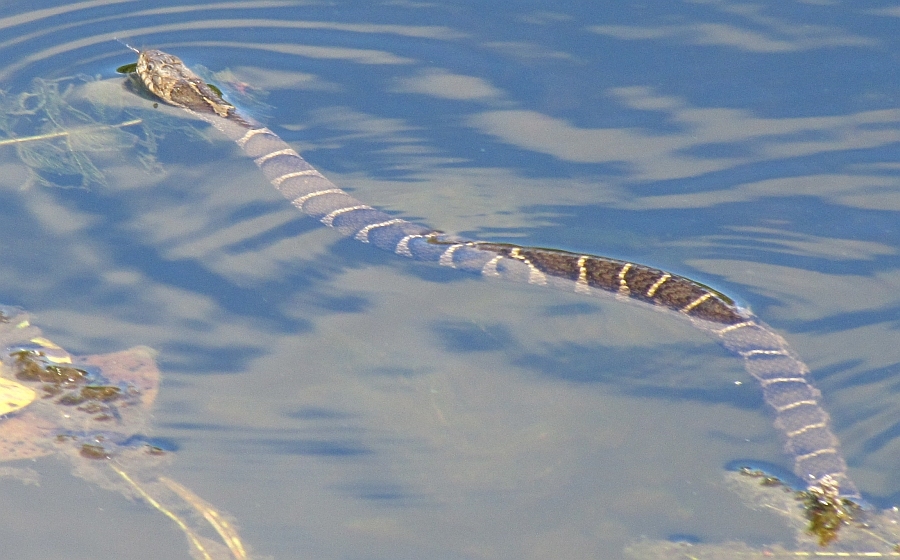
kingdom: Animalia
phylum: Chordata
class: Squamata
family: Colubridae
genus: Nerodia
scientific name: Nerodia sipedon
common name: Northern water snake
